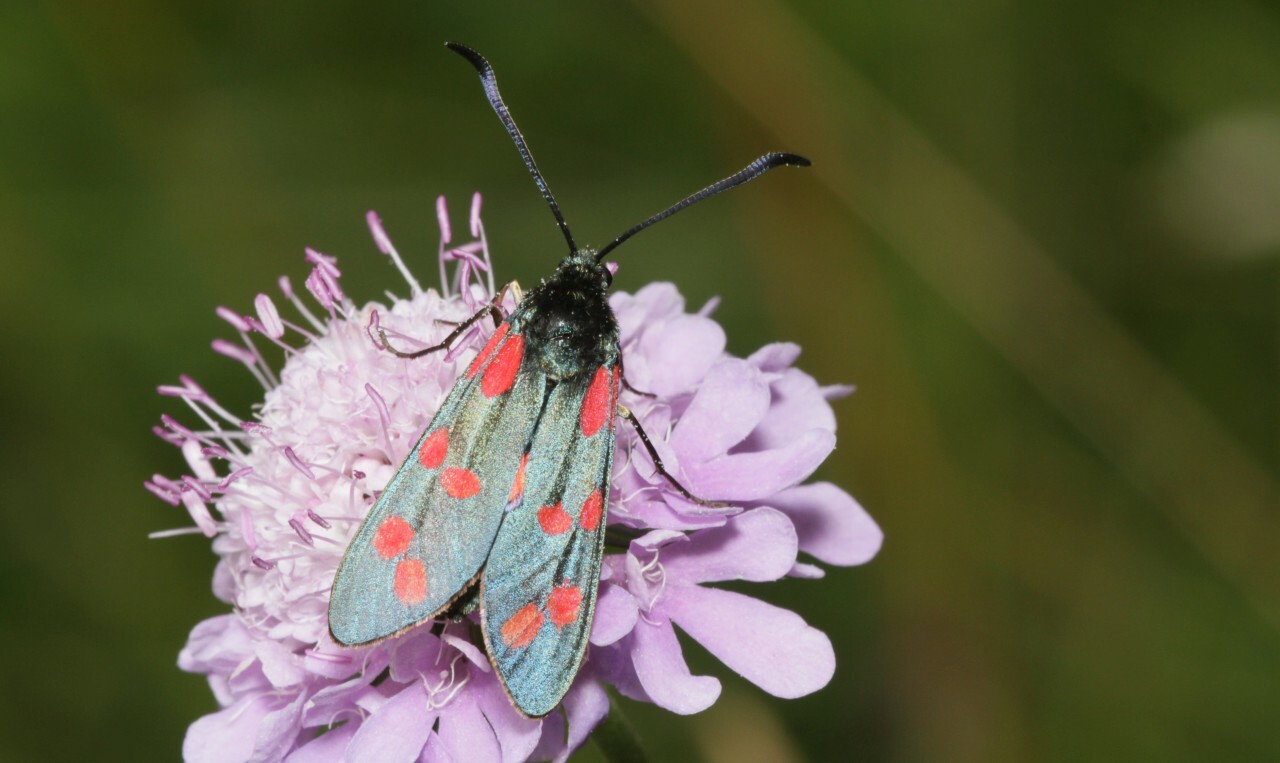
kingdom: Animalia
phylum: Arthropoda
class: Insecta
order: Lepidoptera
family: Zygaenidae
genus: Zygaena
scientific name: Zygaena filipendulae
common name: Six-spot burnet
